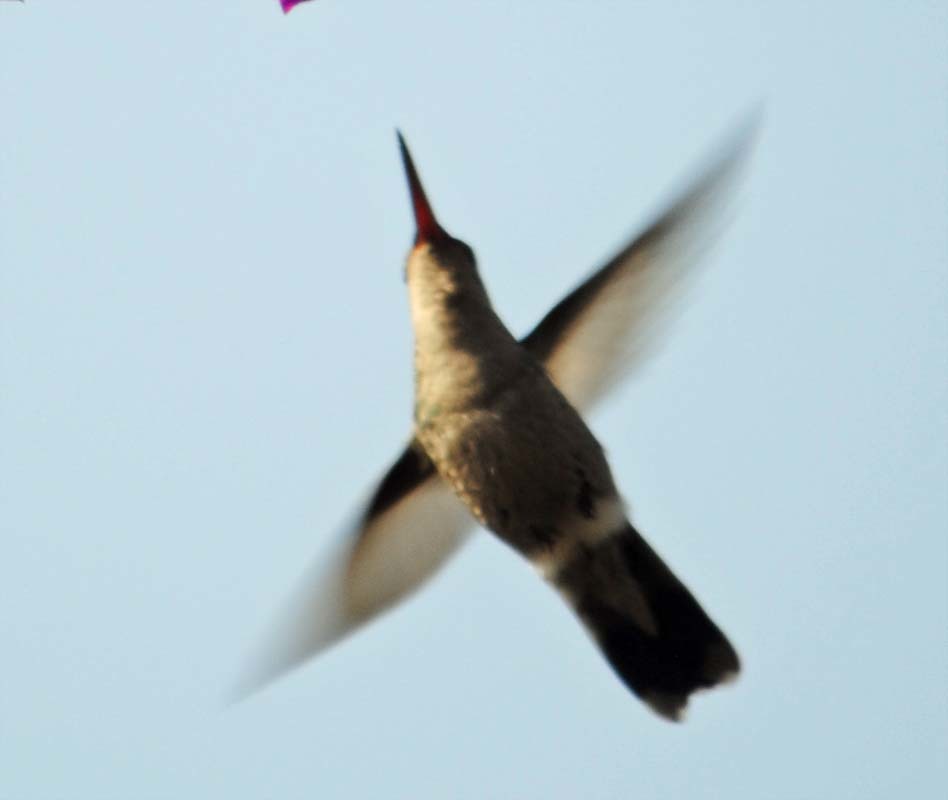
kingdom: Animalia
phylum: Chordata
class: Aves
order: Apodiformes
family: Trochilidae
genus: Cynanthus
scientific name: Cynanthus latirostris
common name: Broad-billed hummingbird
